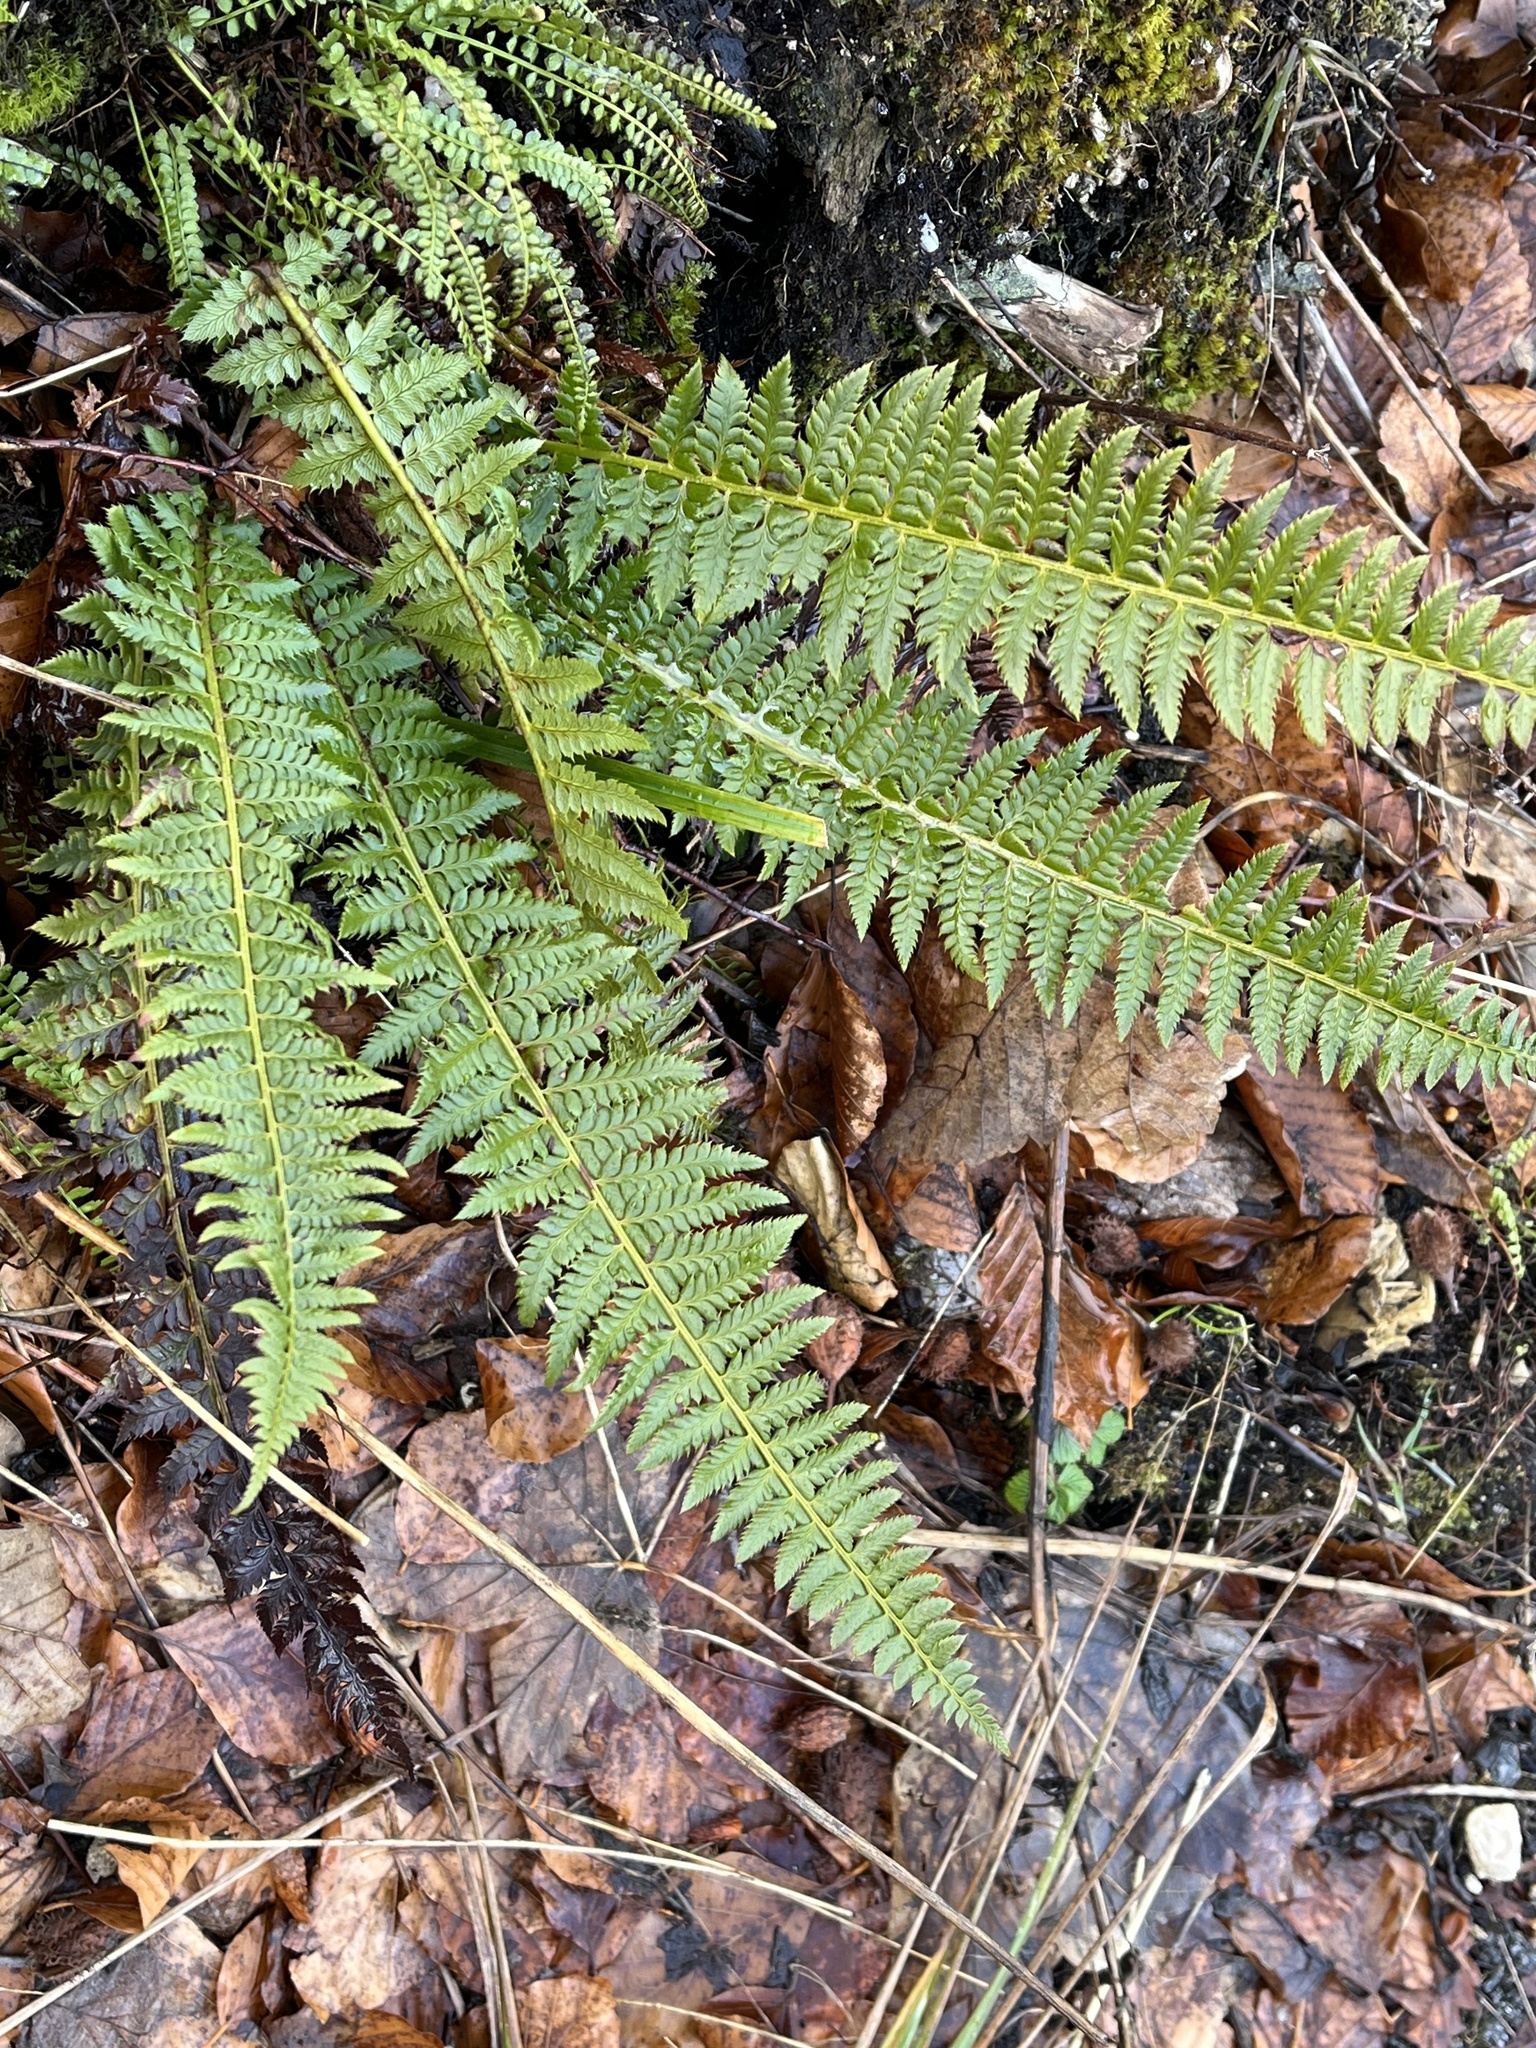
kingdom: Plantae
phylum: Tracheophyta
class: Polypodiopsida
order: Polypodiales
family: Dryopteridaceae
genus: Polystichum
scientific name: Polystichum aculeatum
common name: Hard shield-fern
